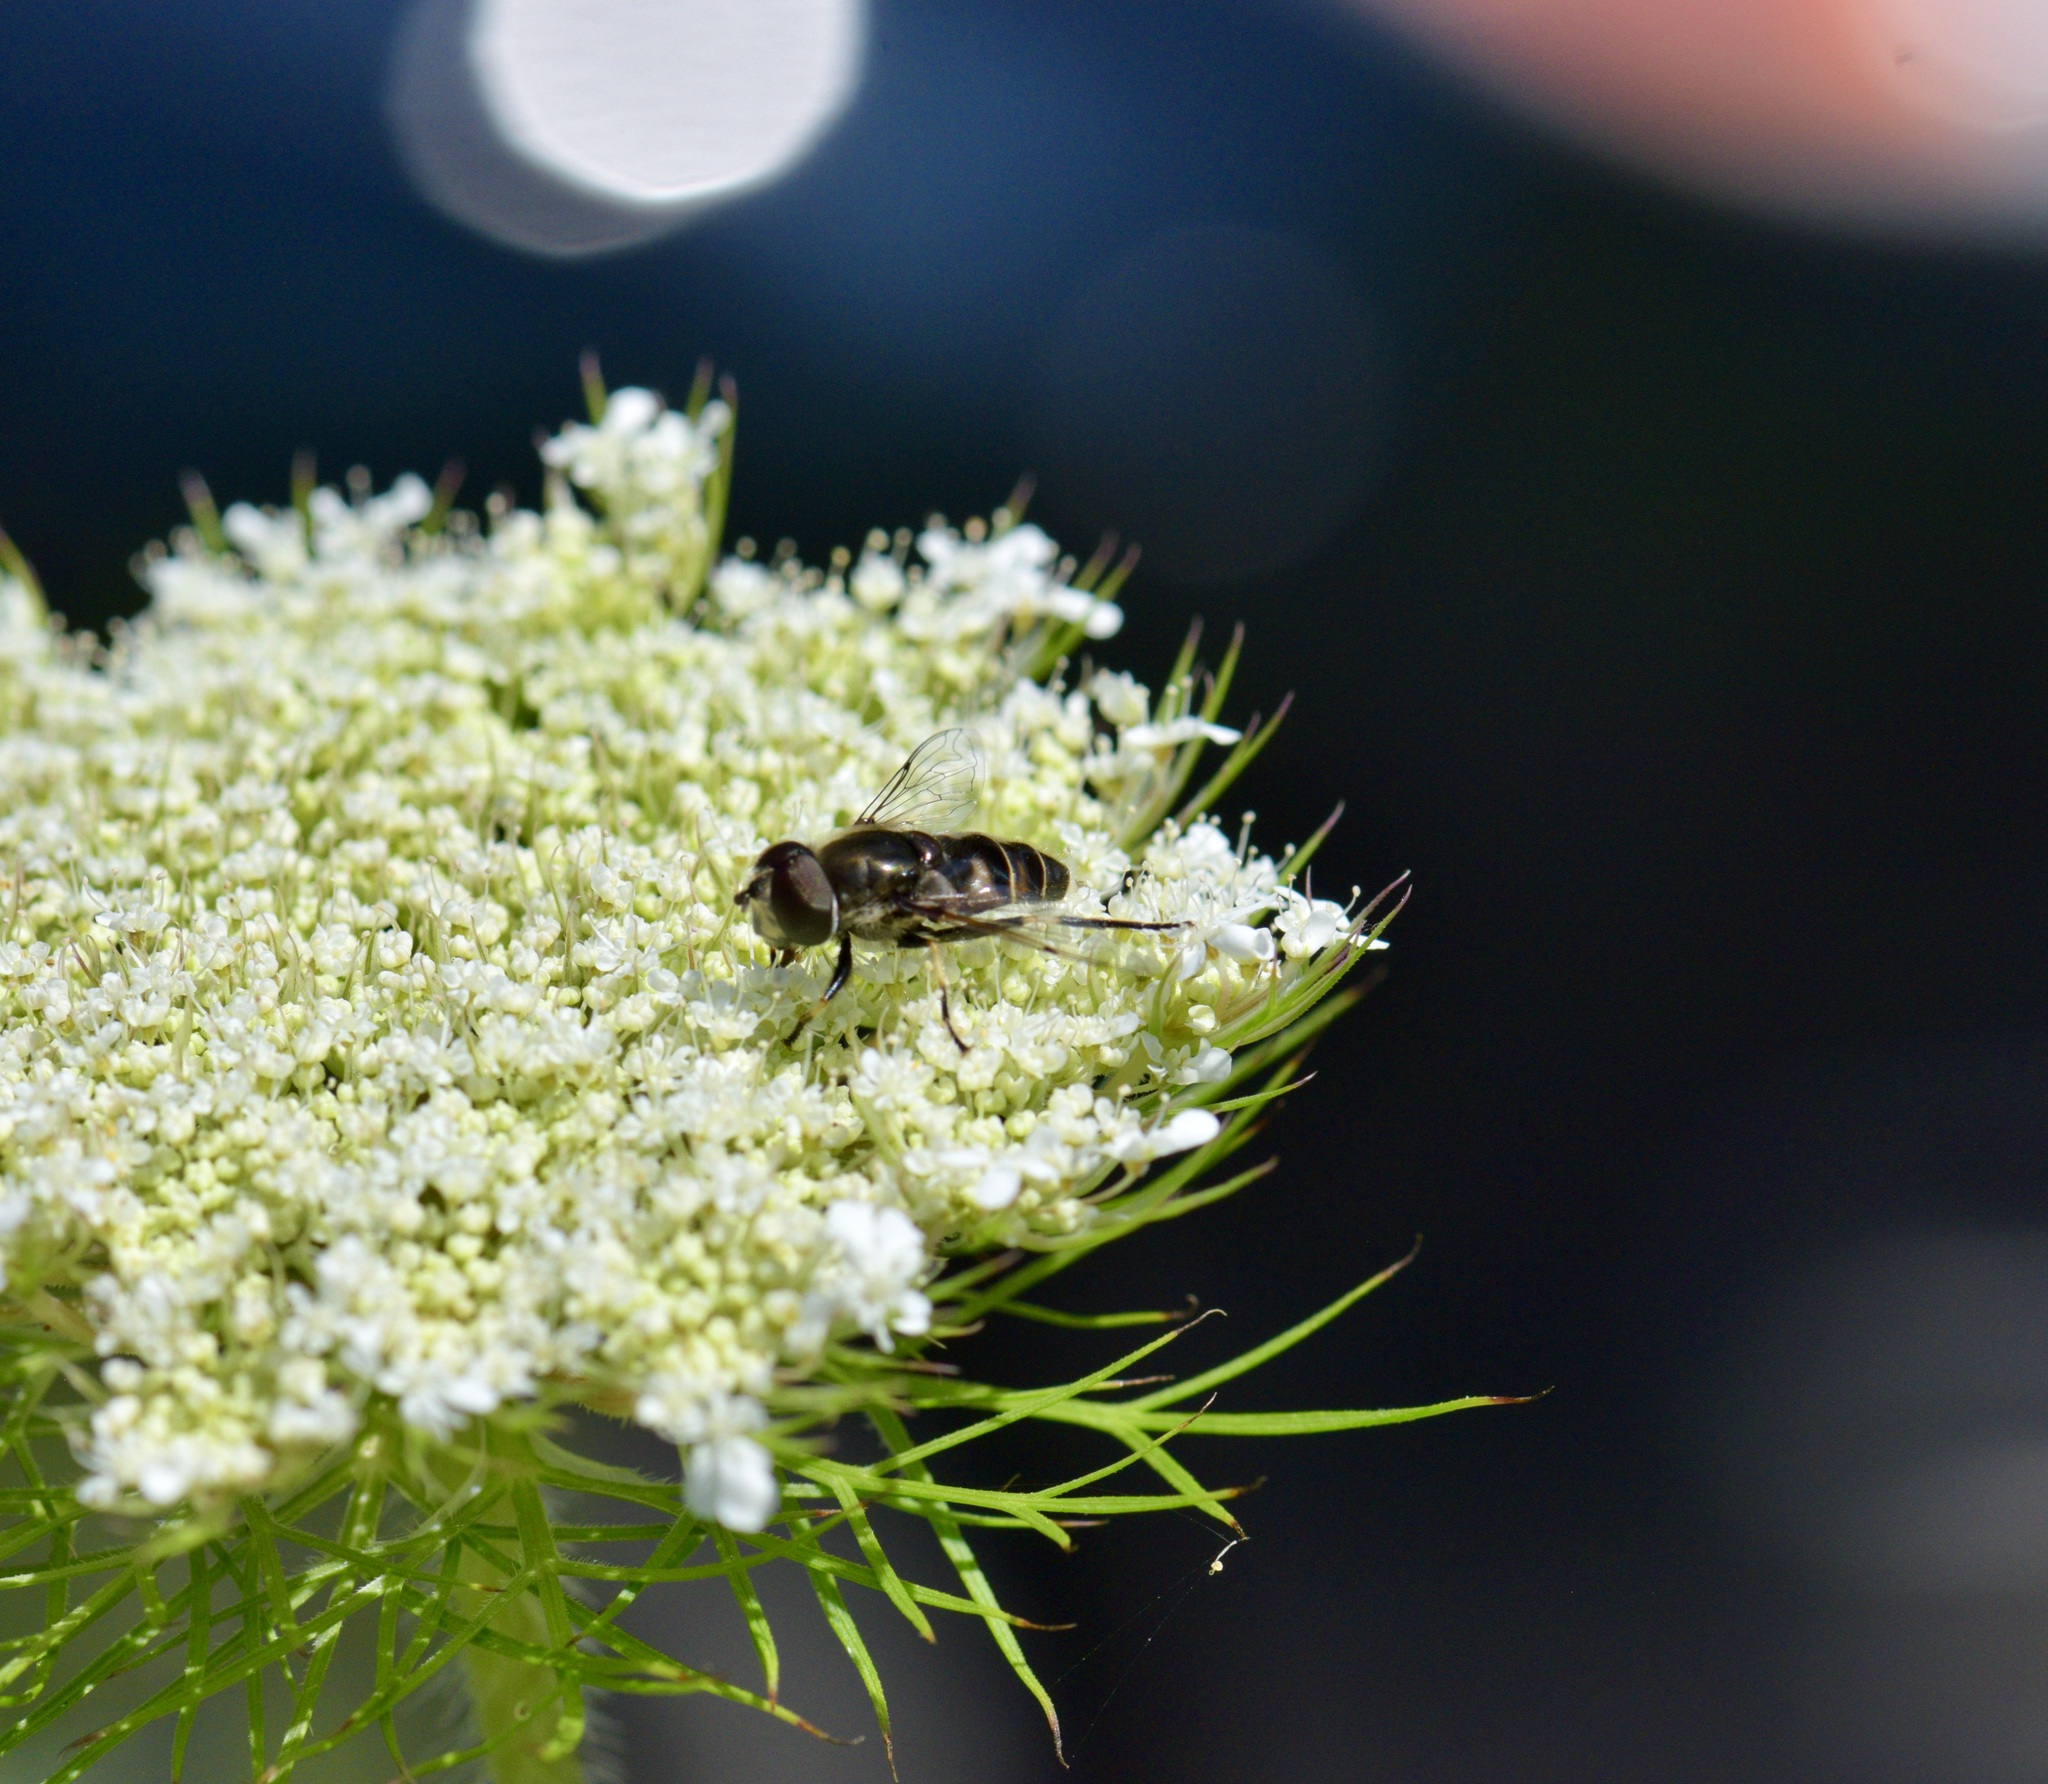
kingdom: Animalia
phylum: Arthropoda
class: Insecta
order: Diptera
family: Syrphidae
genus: Eristalis
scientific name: Eristalis dimidiata
